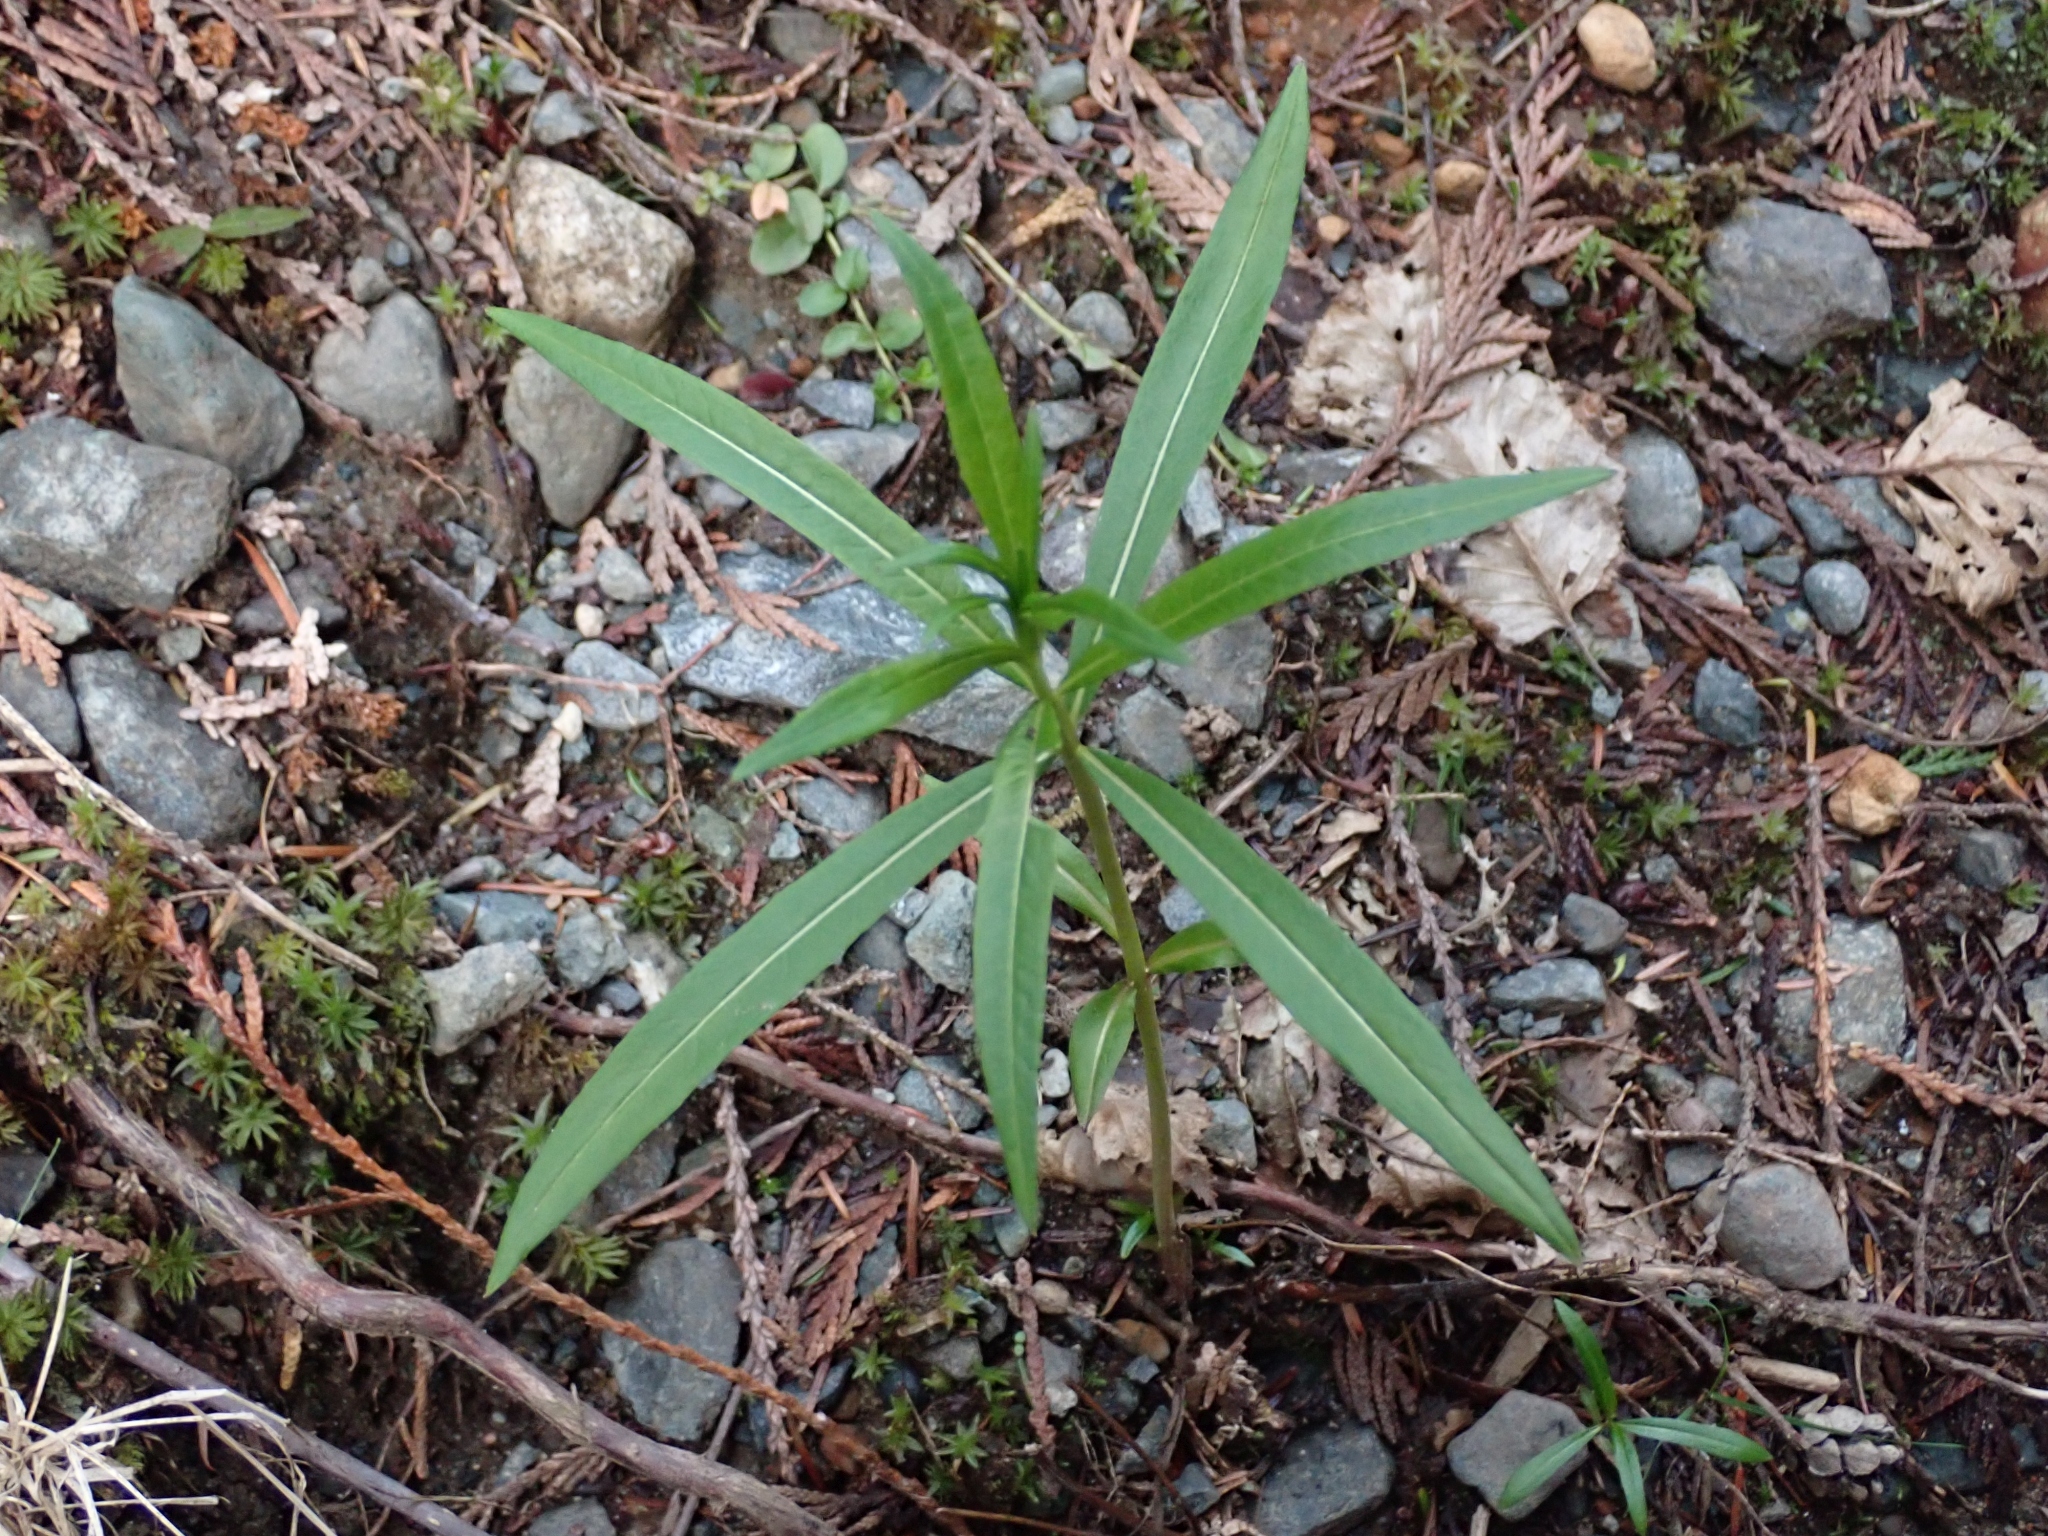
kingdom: Plantae
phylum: Tracheophyta
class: Magnoliopsida
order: Myrtales
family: Onagraceae
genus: Chamaenerion
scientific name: Chamaenerion angustifolium
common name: Fireweed
